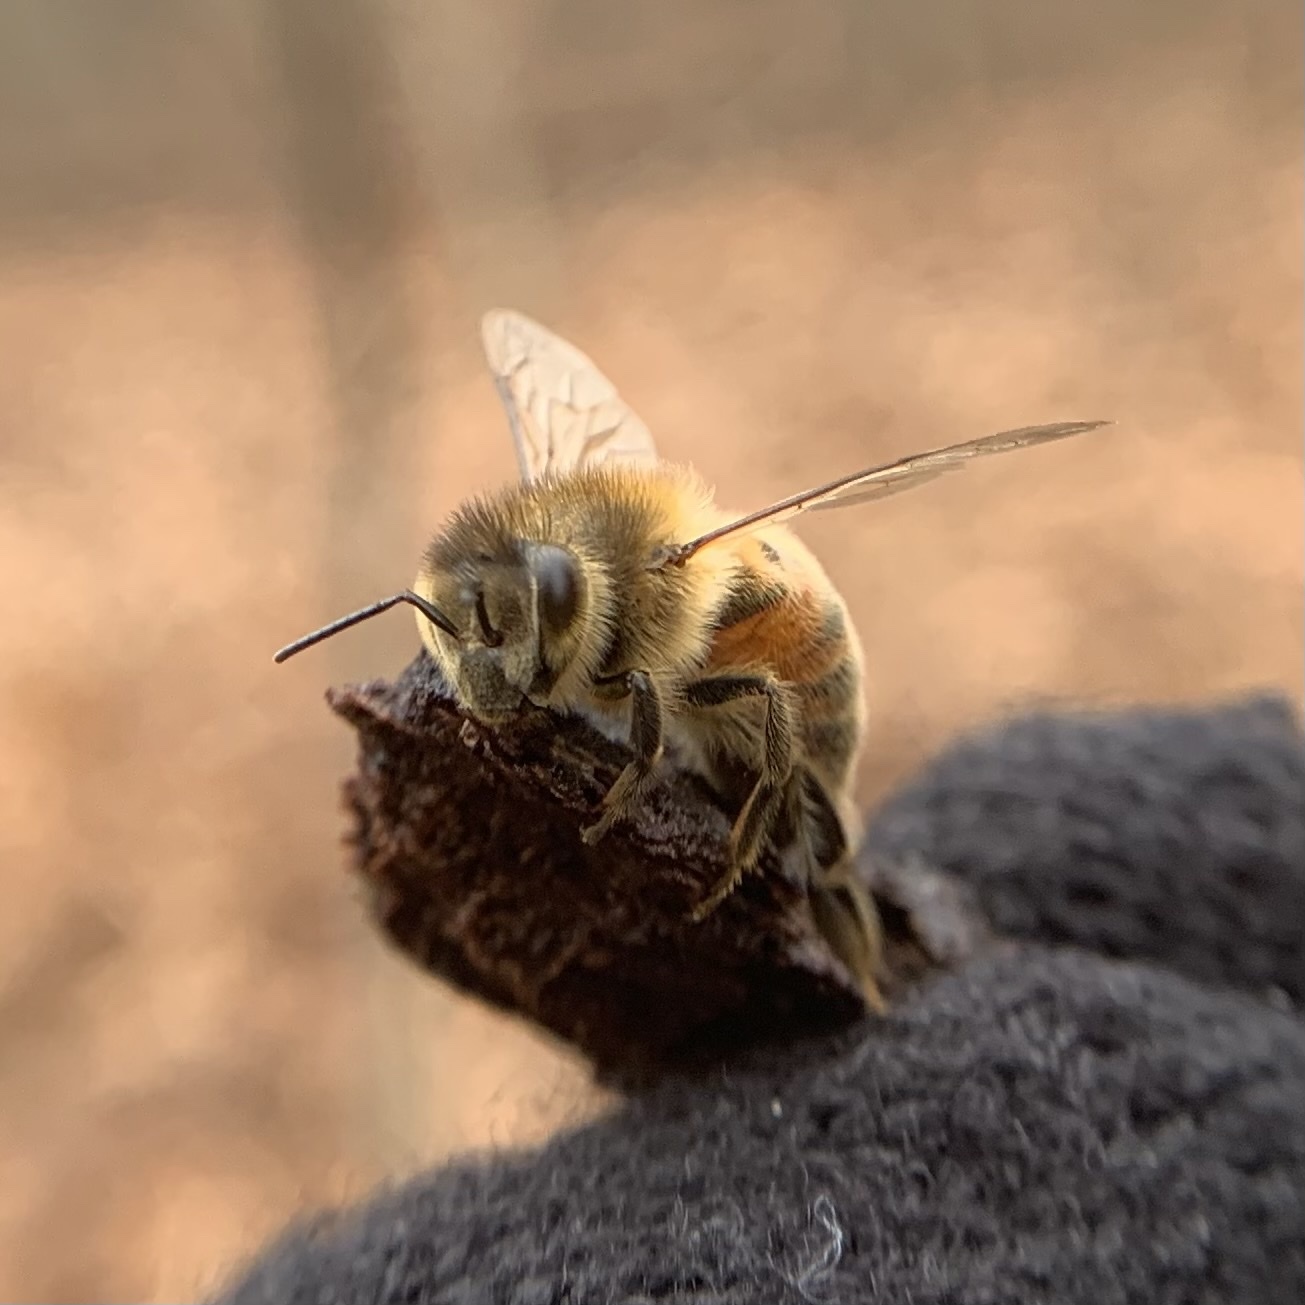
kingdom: Animalia
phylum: Arthropoda
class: Insecta
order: Hymenoptera
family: Apidae
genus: Apis
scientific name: Apis mellifera
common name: Honey bee
